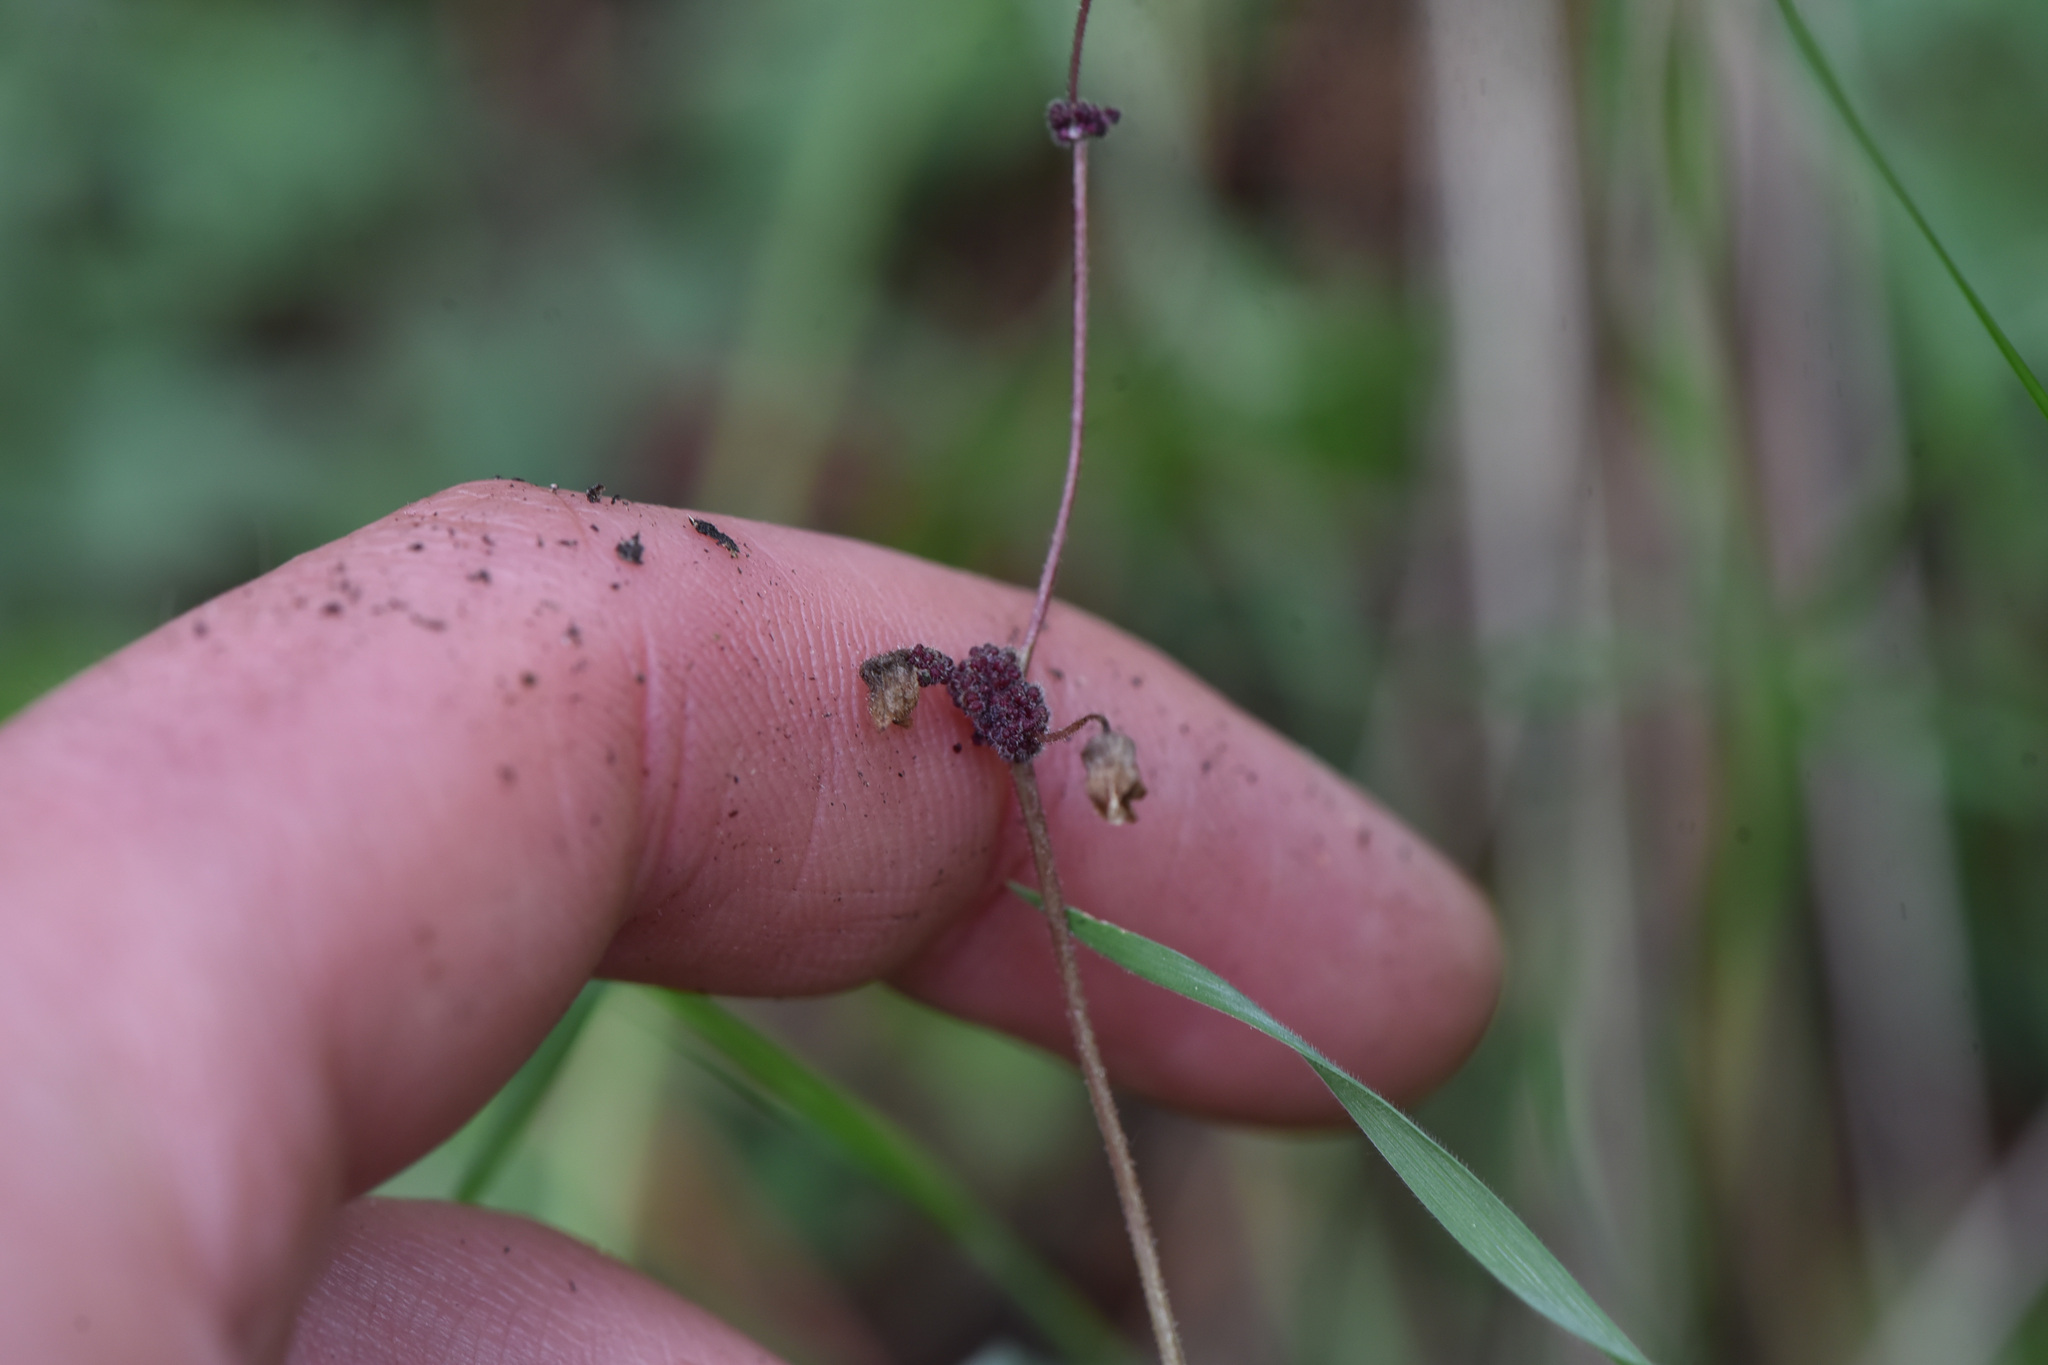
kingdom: Plantae
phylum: Tracheophyta
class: Magnoliopsida
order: Saxifragales
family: Saxifragaceae
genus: Lithophragma
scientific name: Lithophragma glabrum
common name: Bulbous prairie-star
